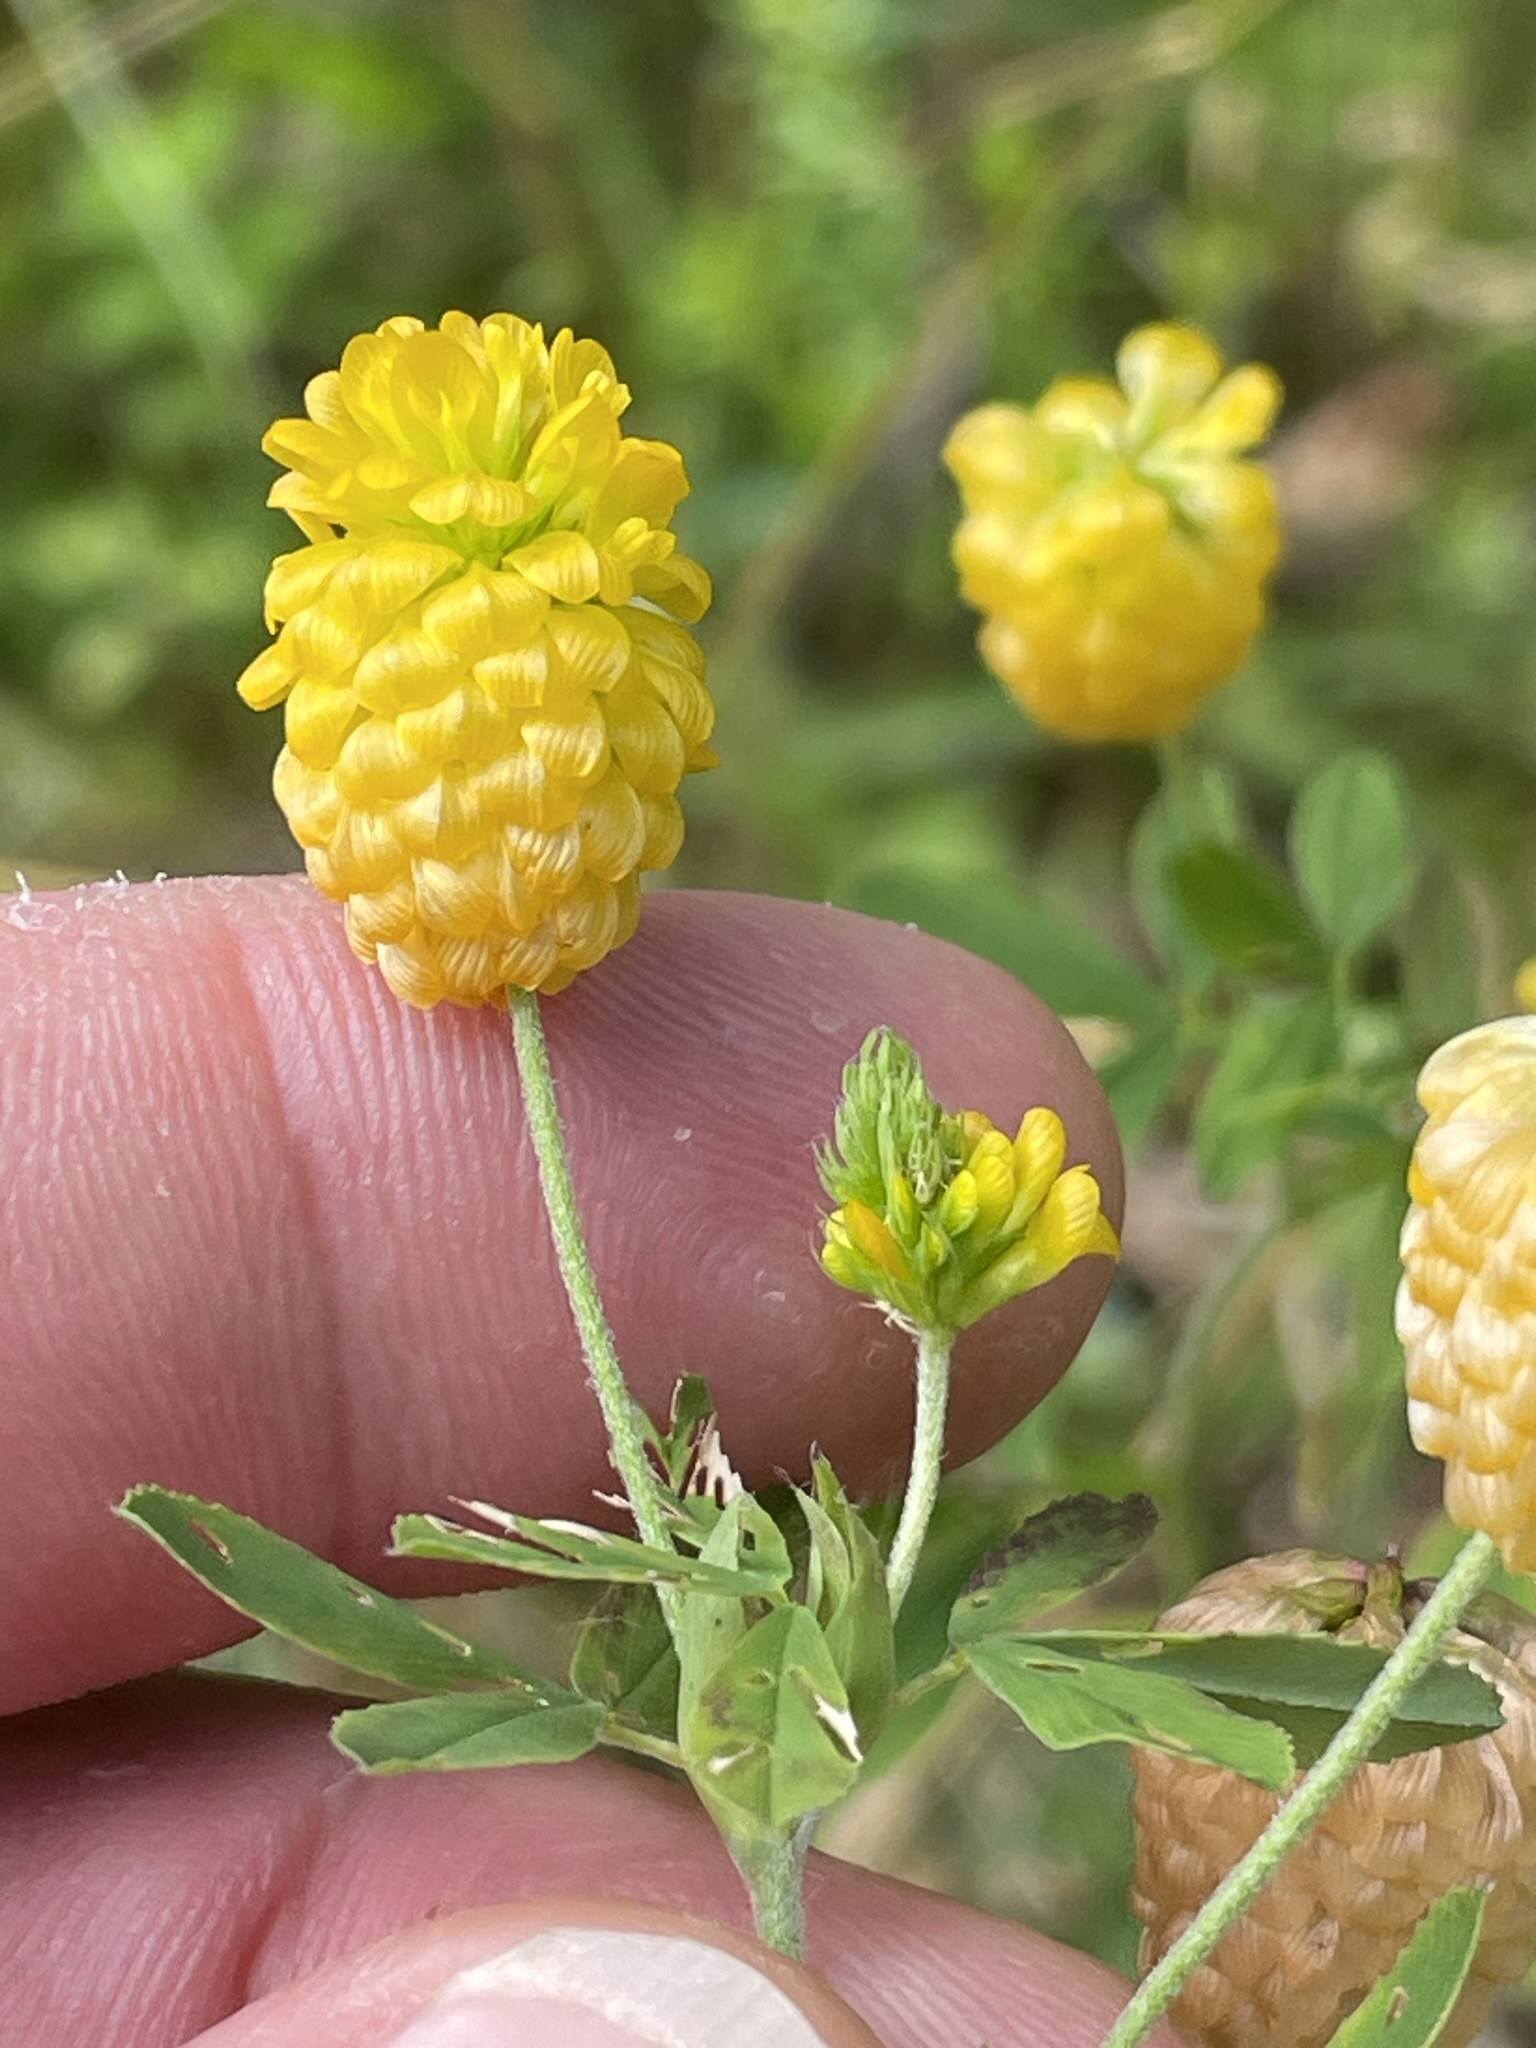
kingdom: Plantae
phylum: Tracheophyta
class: Magnoliopsida
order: Fabales
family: Fabaceae
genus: Trifolium
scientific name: Trifolium aureum
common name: Golden clover
